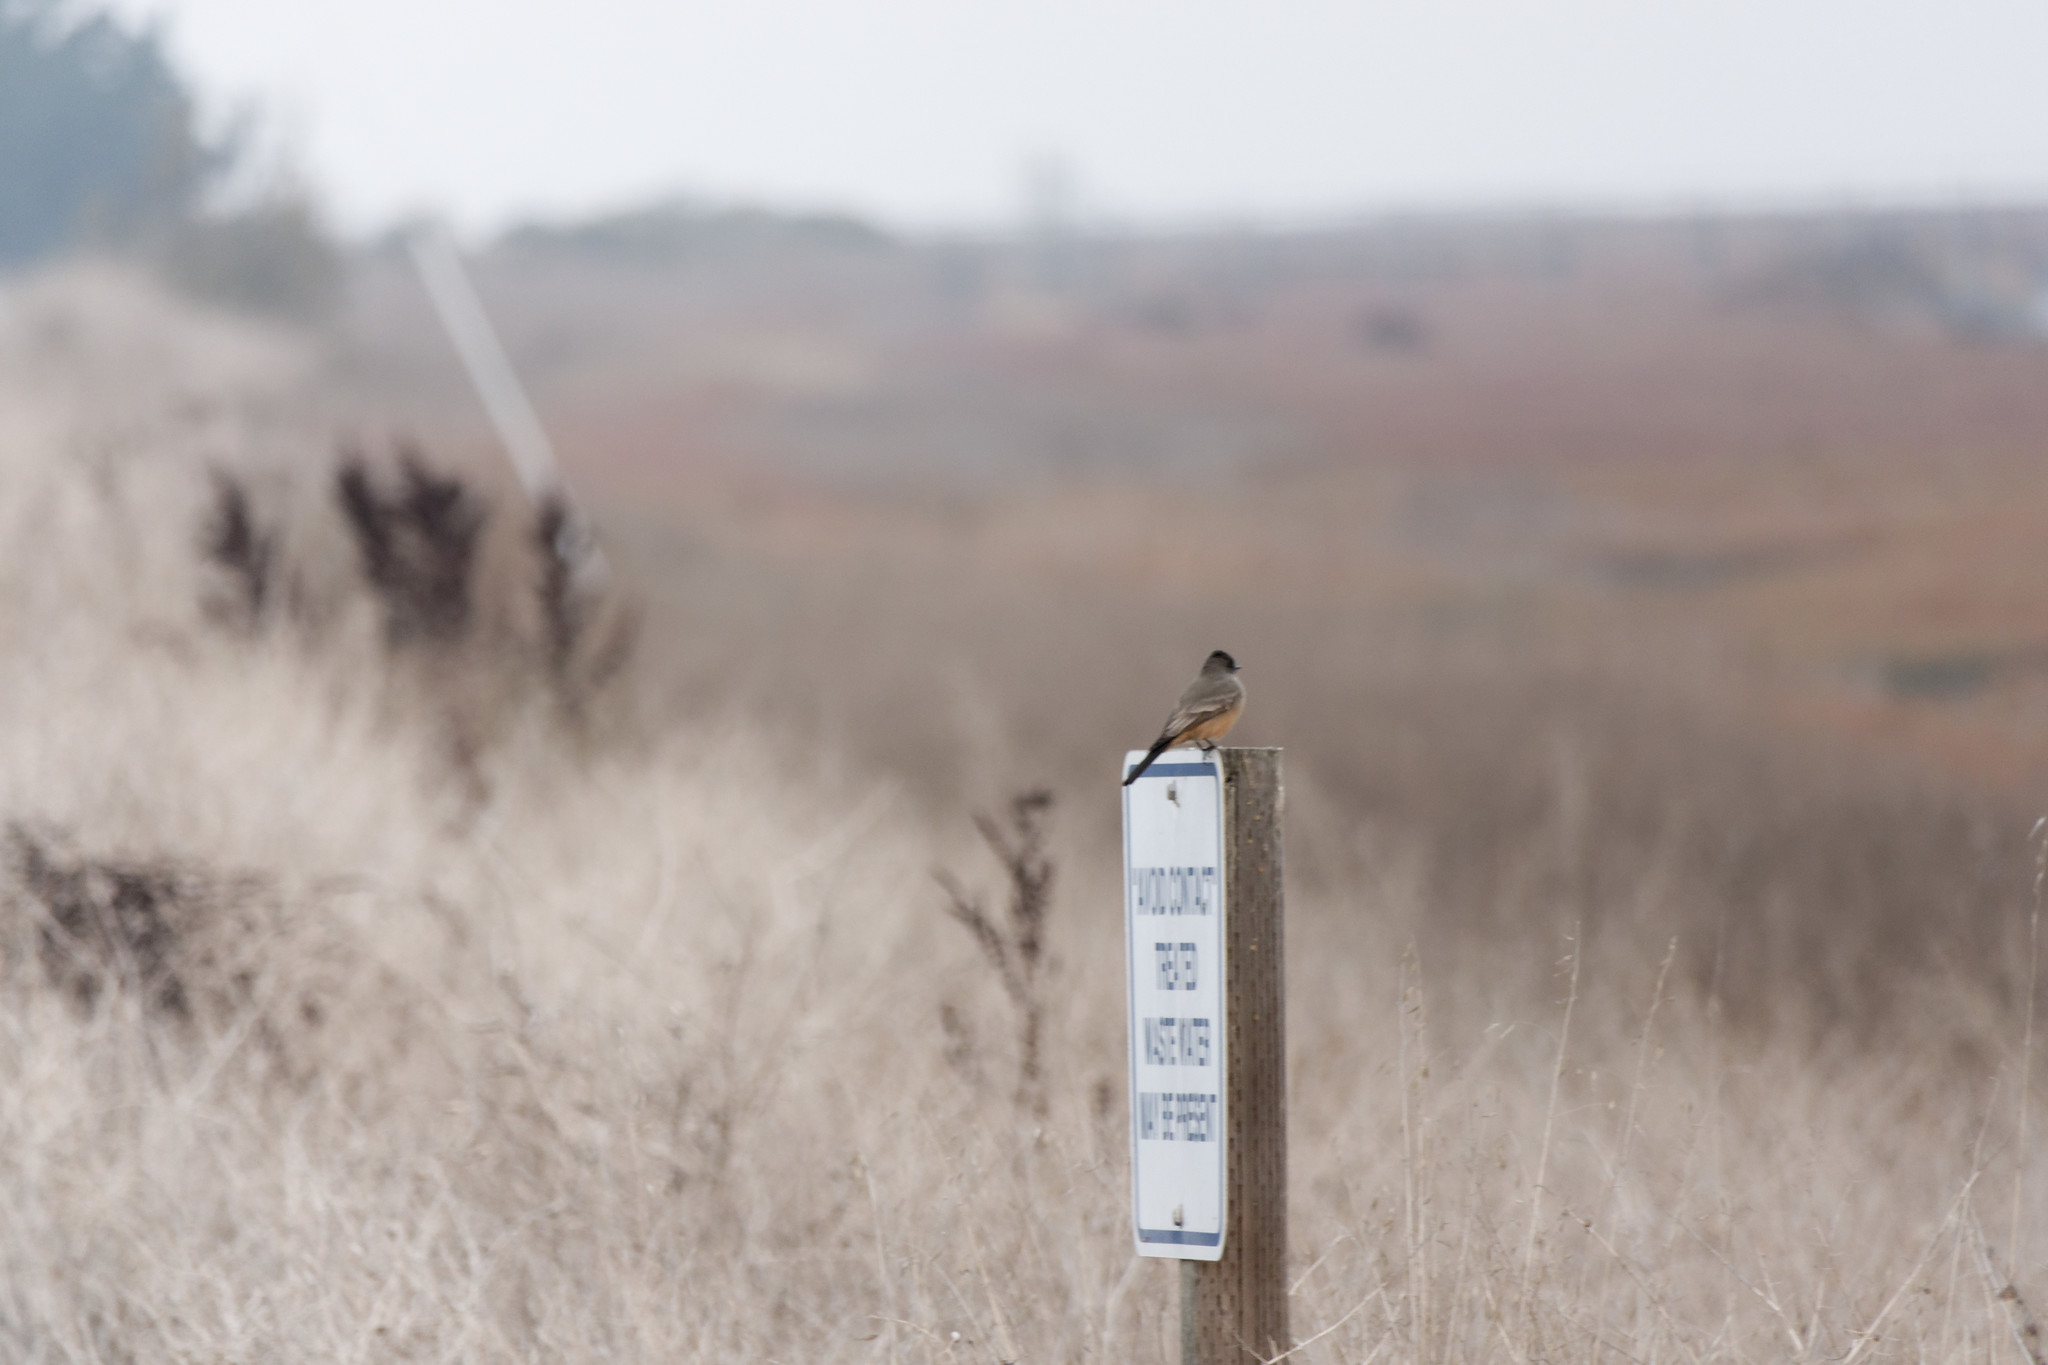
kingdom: Animalia
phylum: Chordata
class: Aves
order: Passeriformes
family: Tyrannidae
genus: Sayornis
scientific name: Sayornis saya
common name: Say's phoebe
